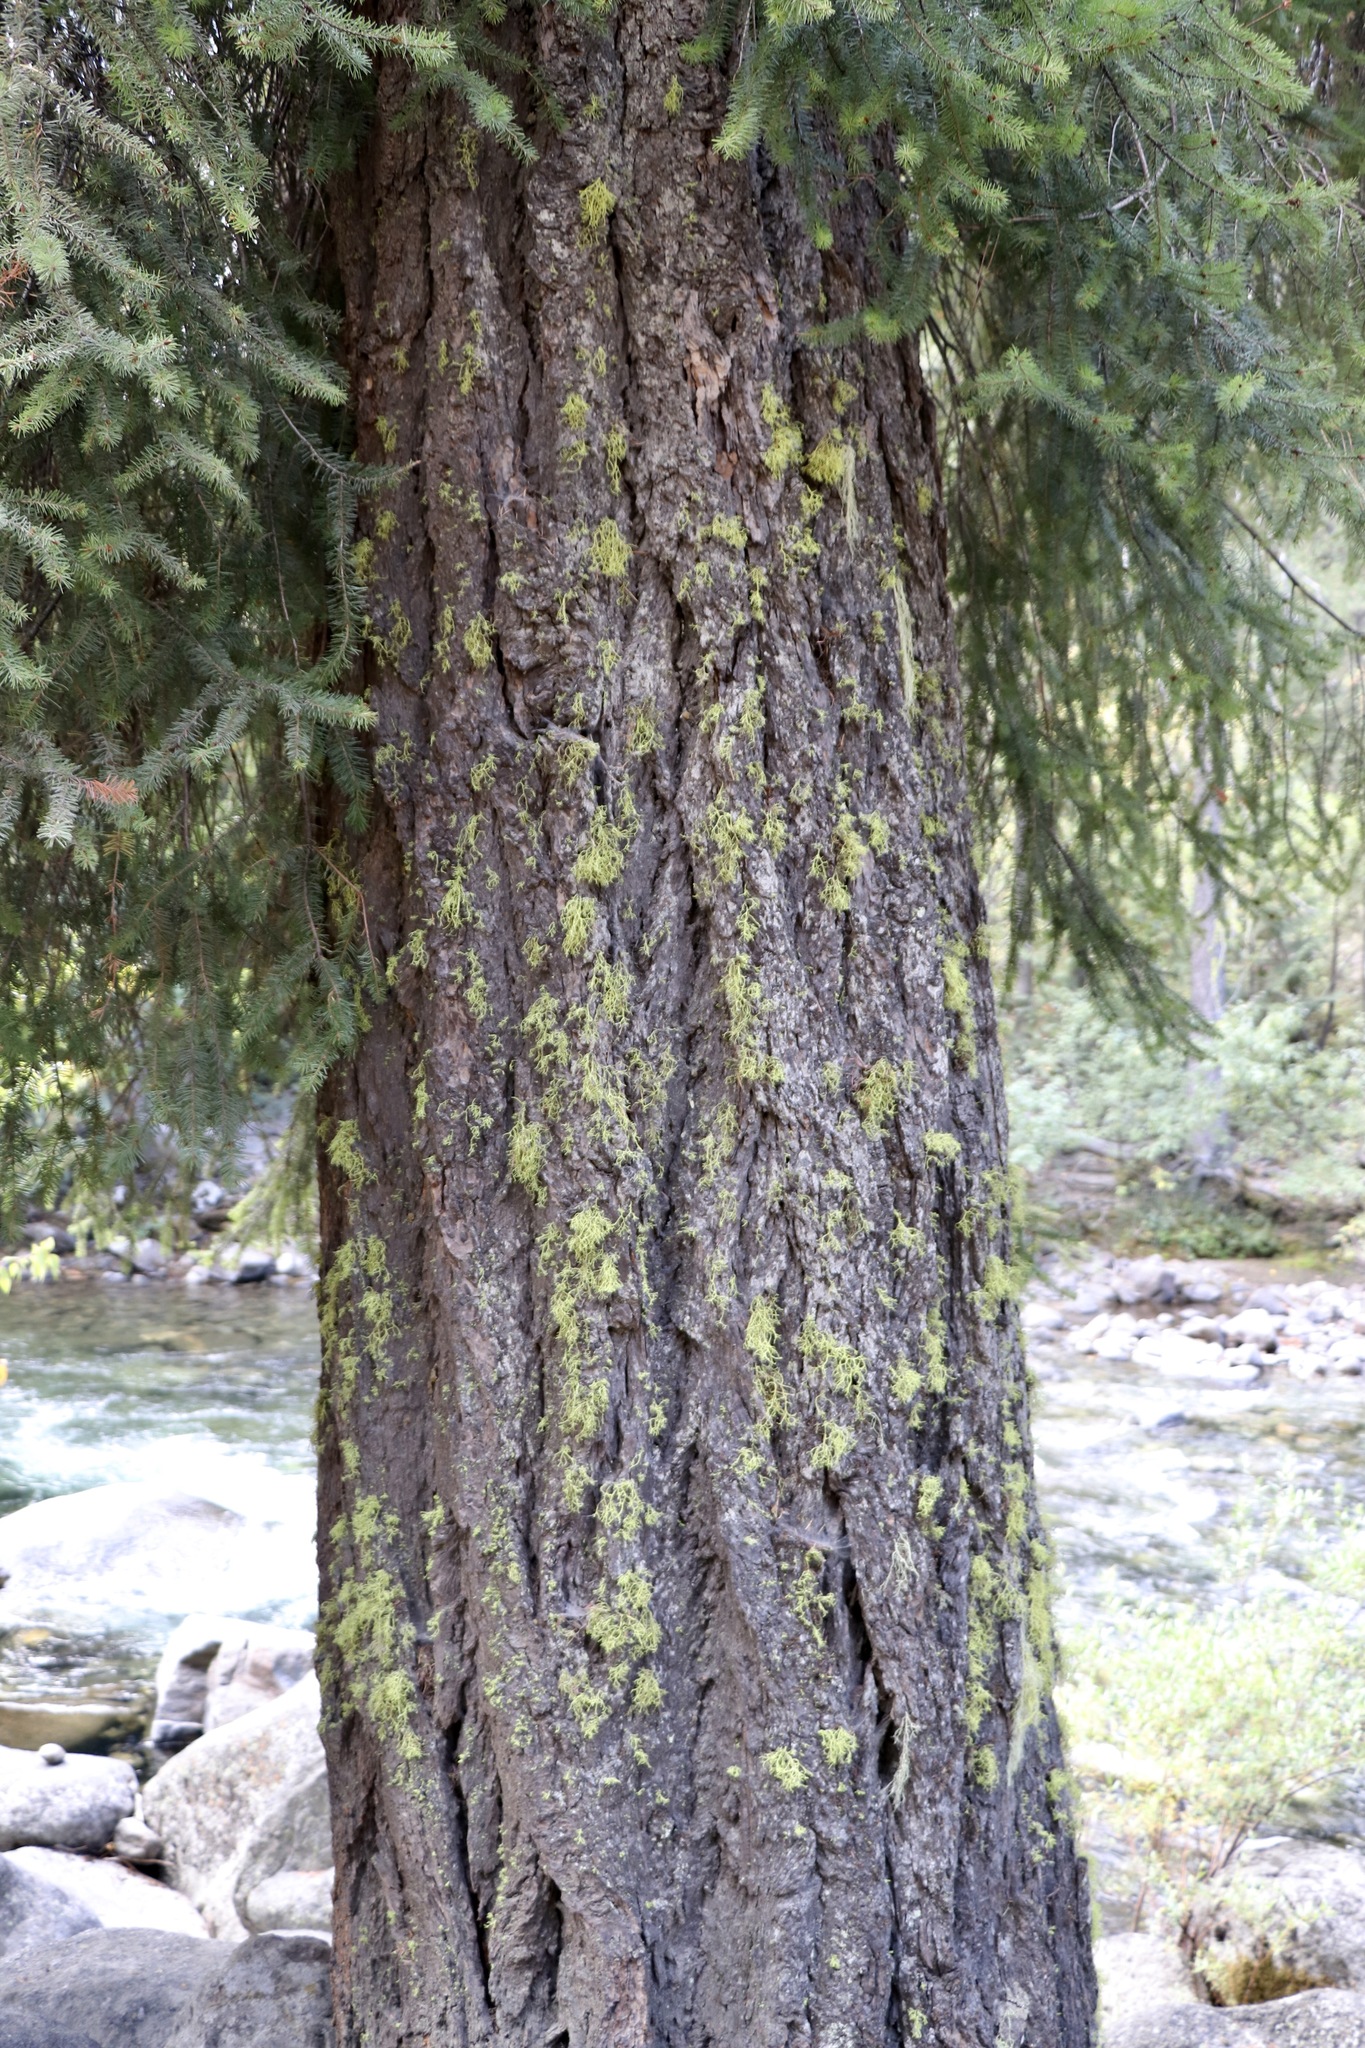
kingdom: Plantae
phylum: Tracheophyta
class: Pinopsida
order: Pinales
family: Pinaceae
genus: Pseudotsuga
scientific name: Pseudotsuga menziesii
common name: Douglas fir
